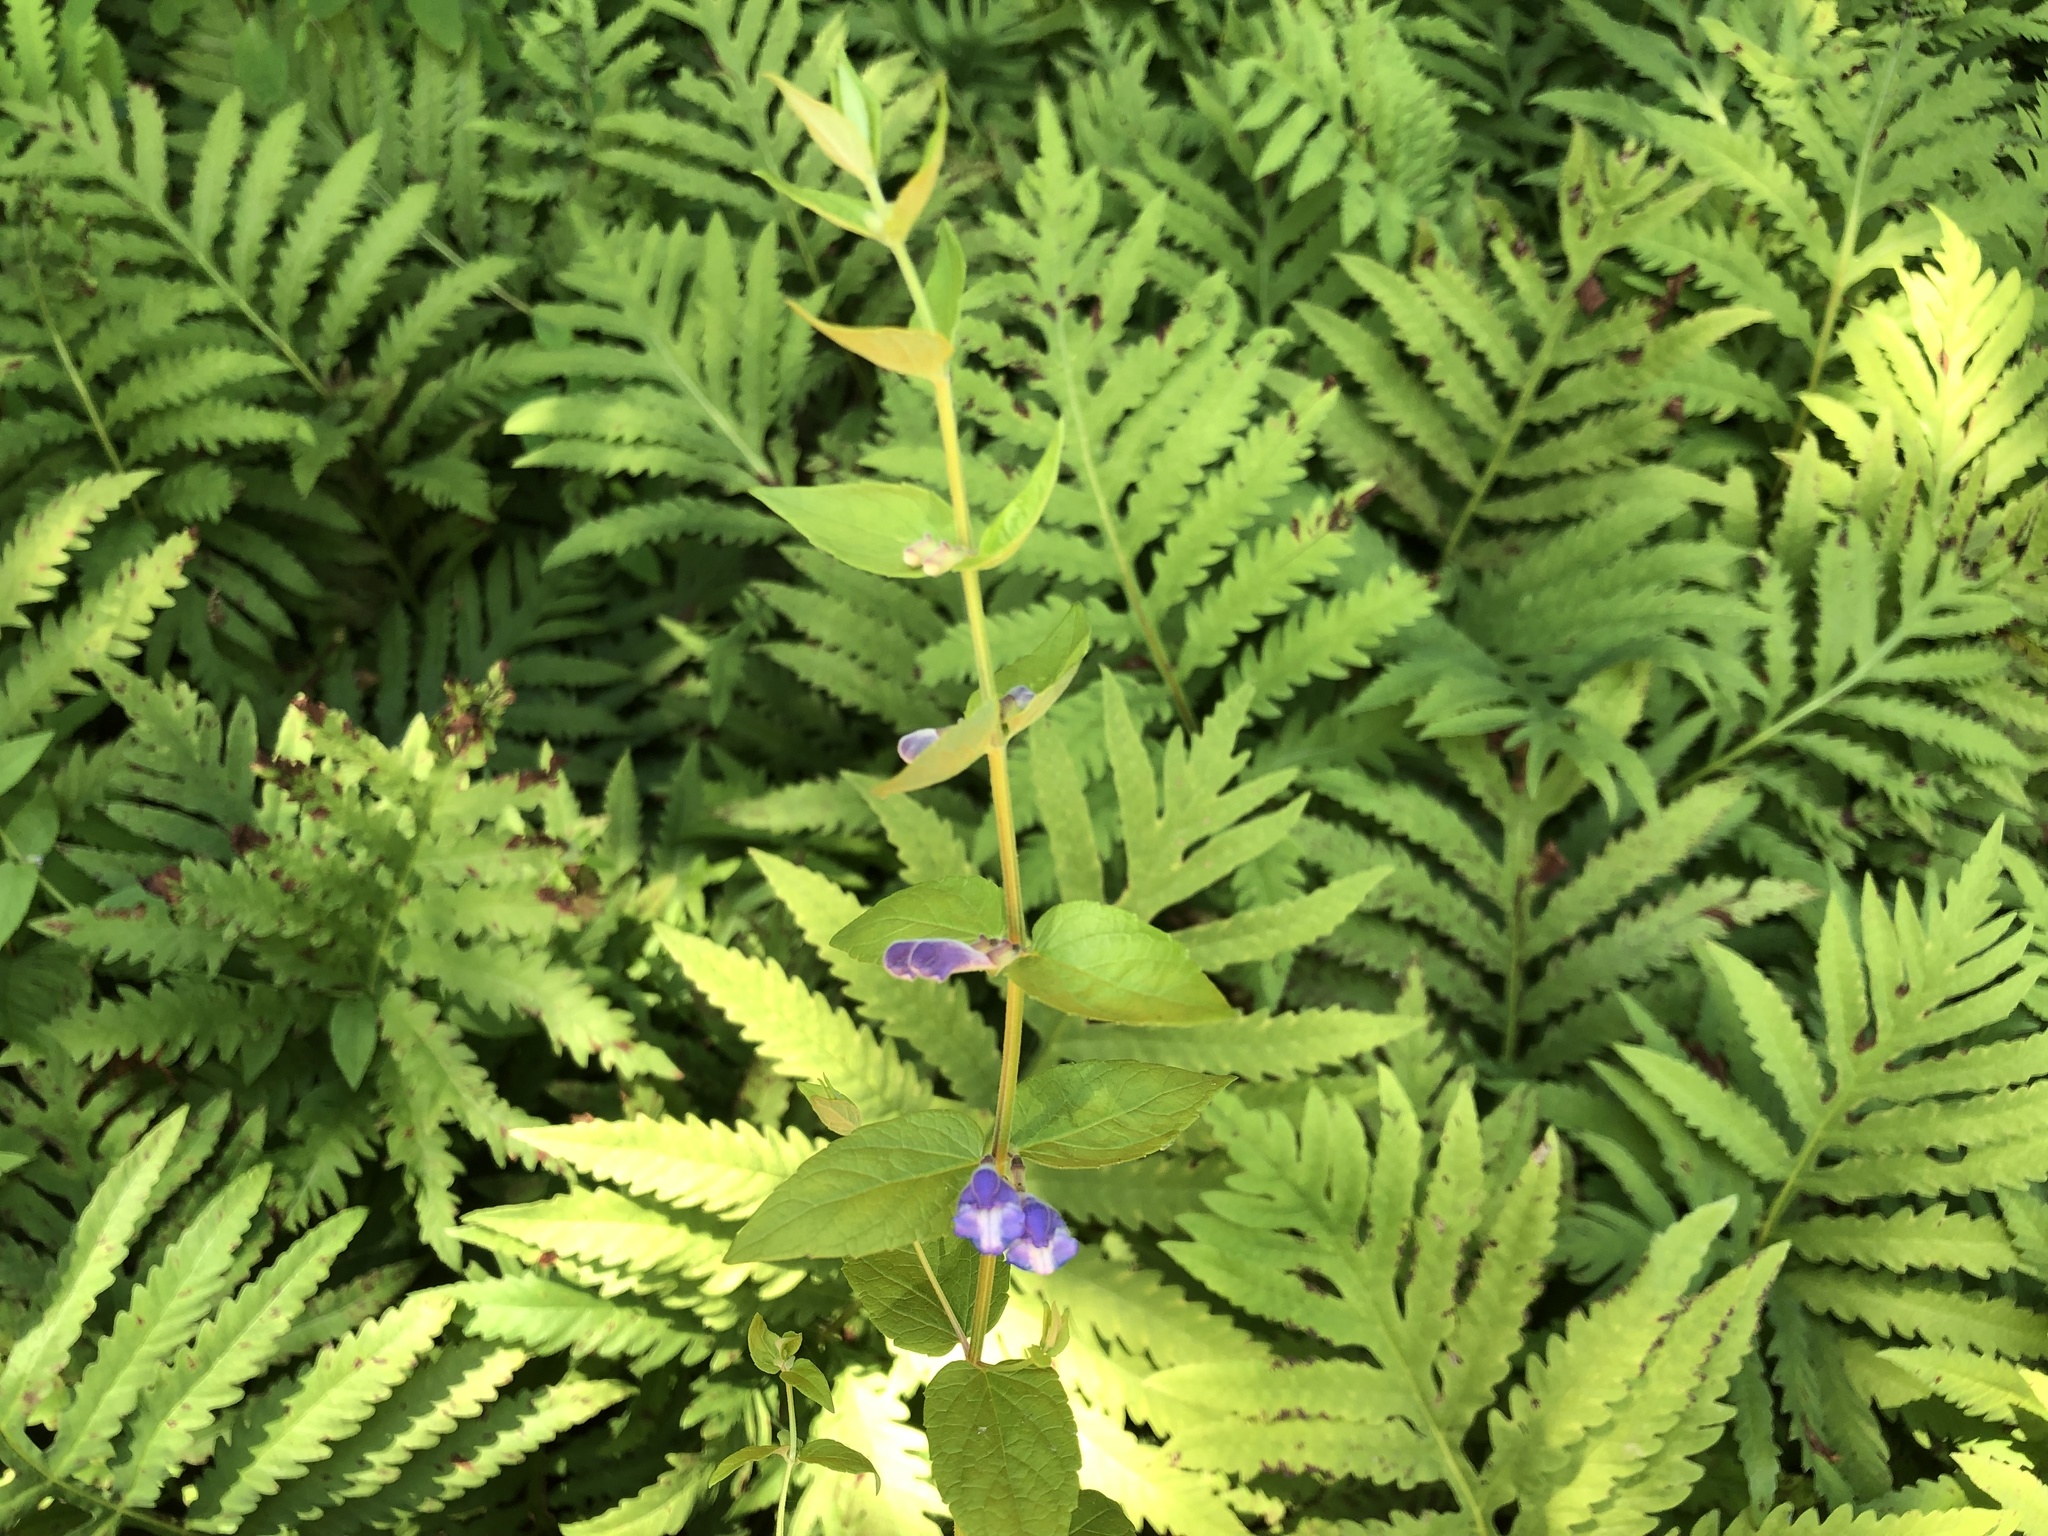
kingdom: Plantae
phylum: Tracheophyta
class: Magnoliopsida
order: Lamiales
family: Lamiaceae
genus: Scutellaria
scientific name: Scutellaria galericulata
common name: Skullcap
